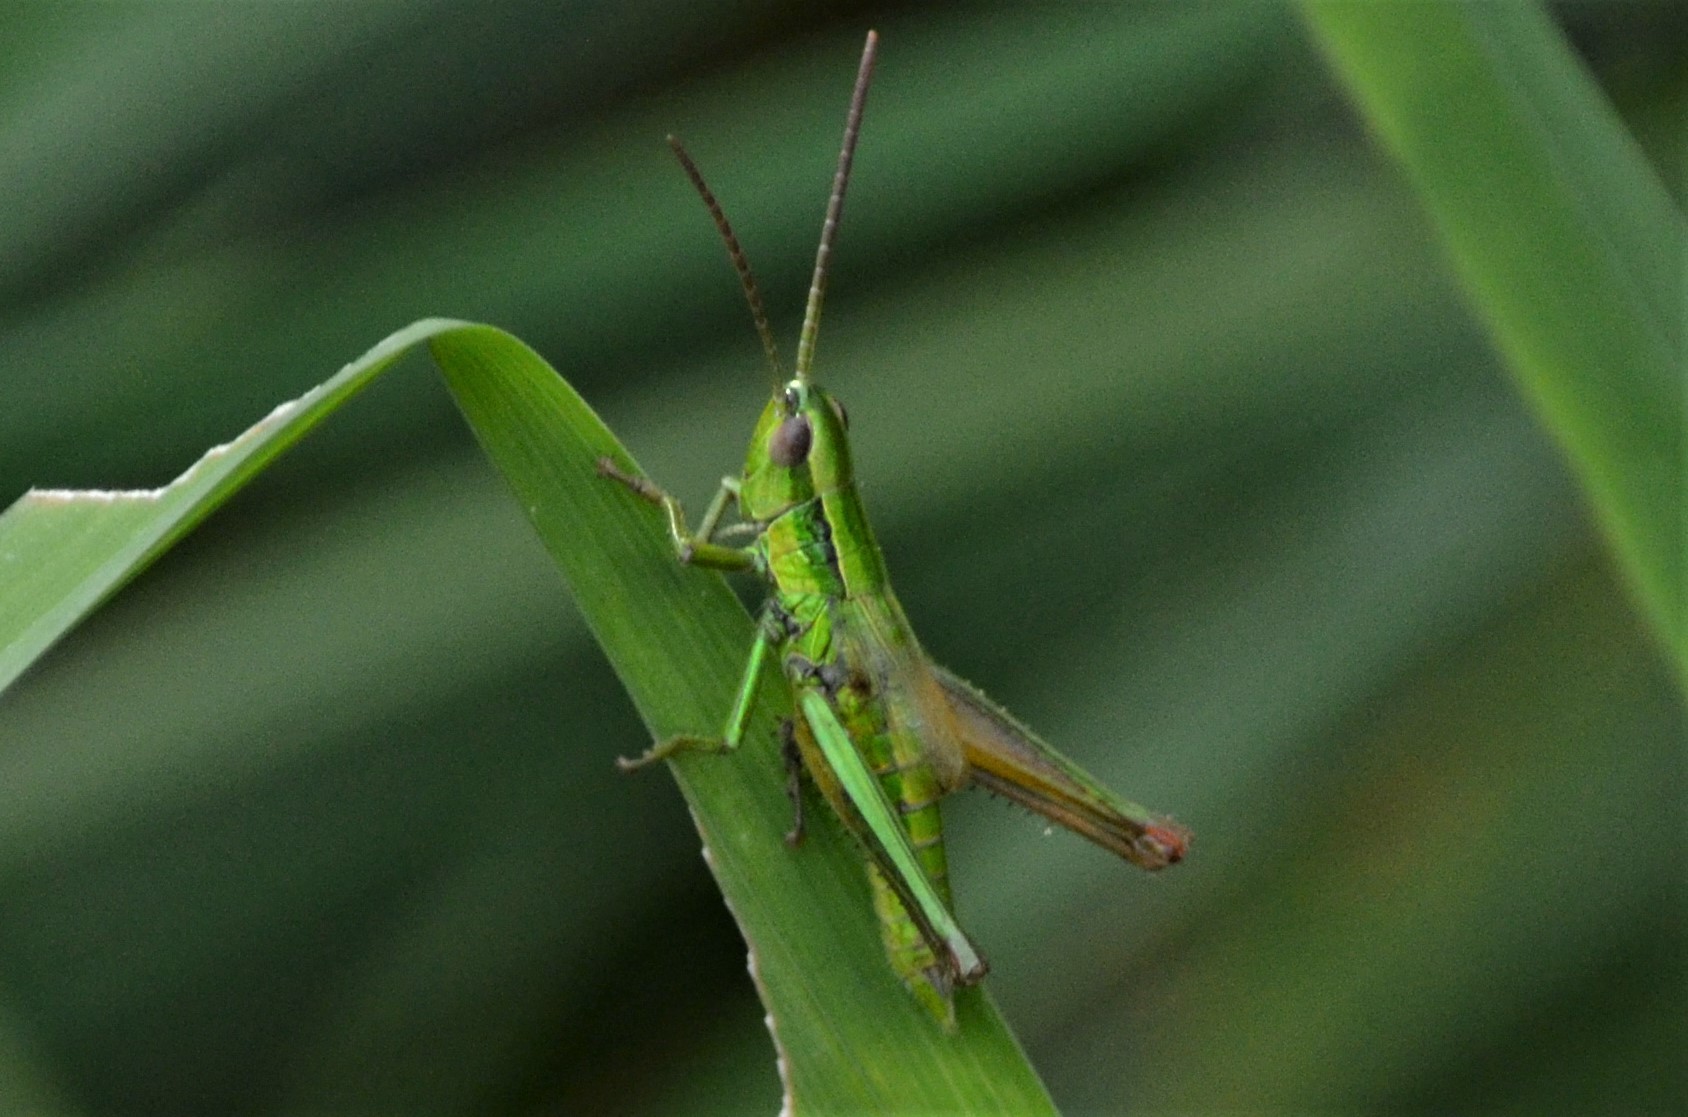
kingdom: Animalia
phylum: Arthropoda
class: Insecta
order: Orthoptera
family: Acrididae
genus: Euthystira
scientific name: Euthystira brachyptera
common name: Small gold grasshopper
